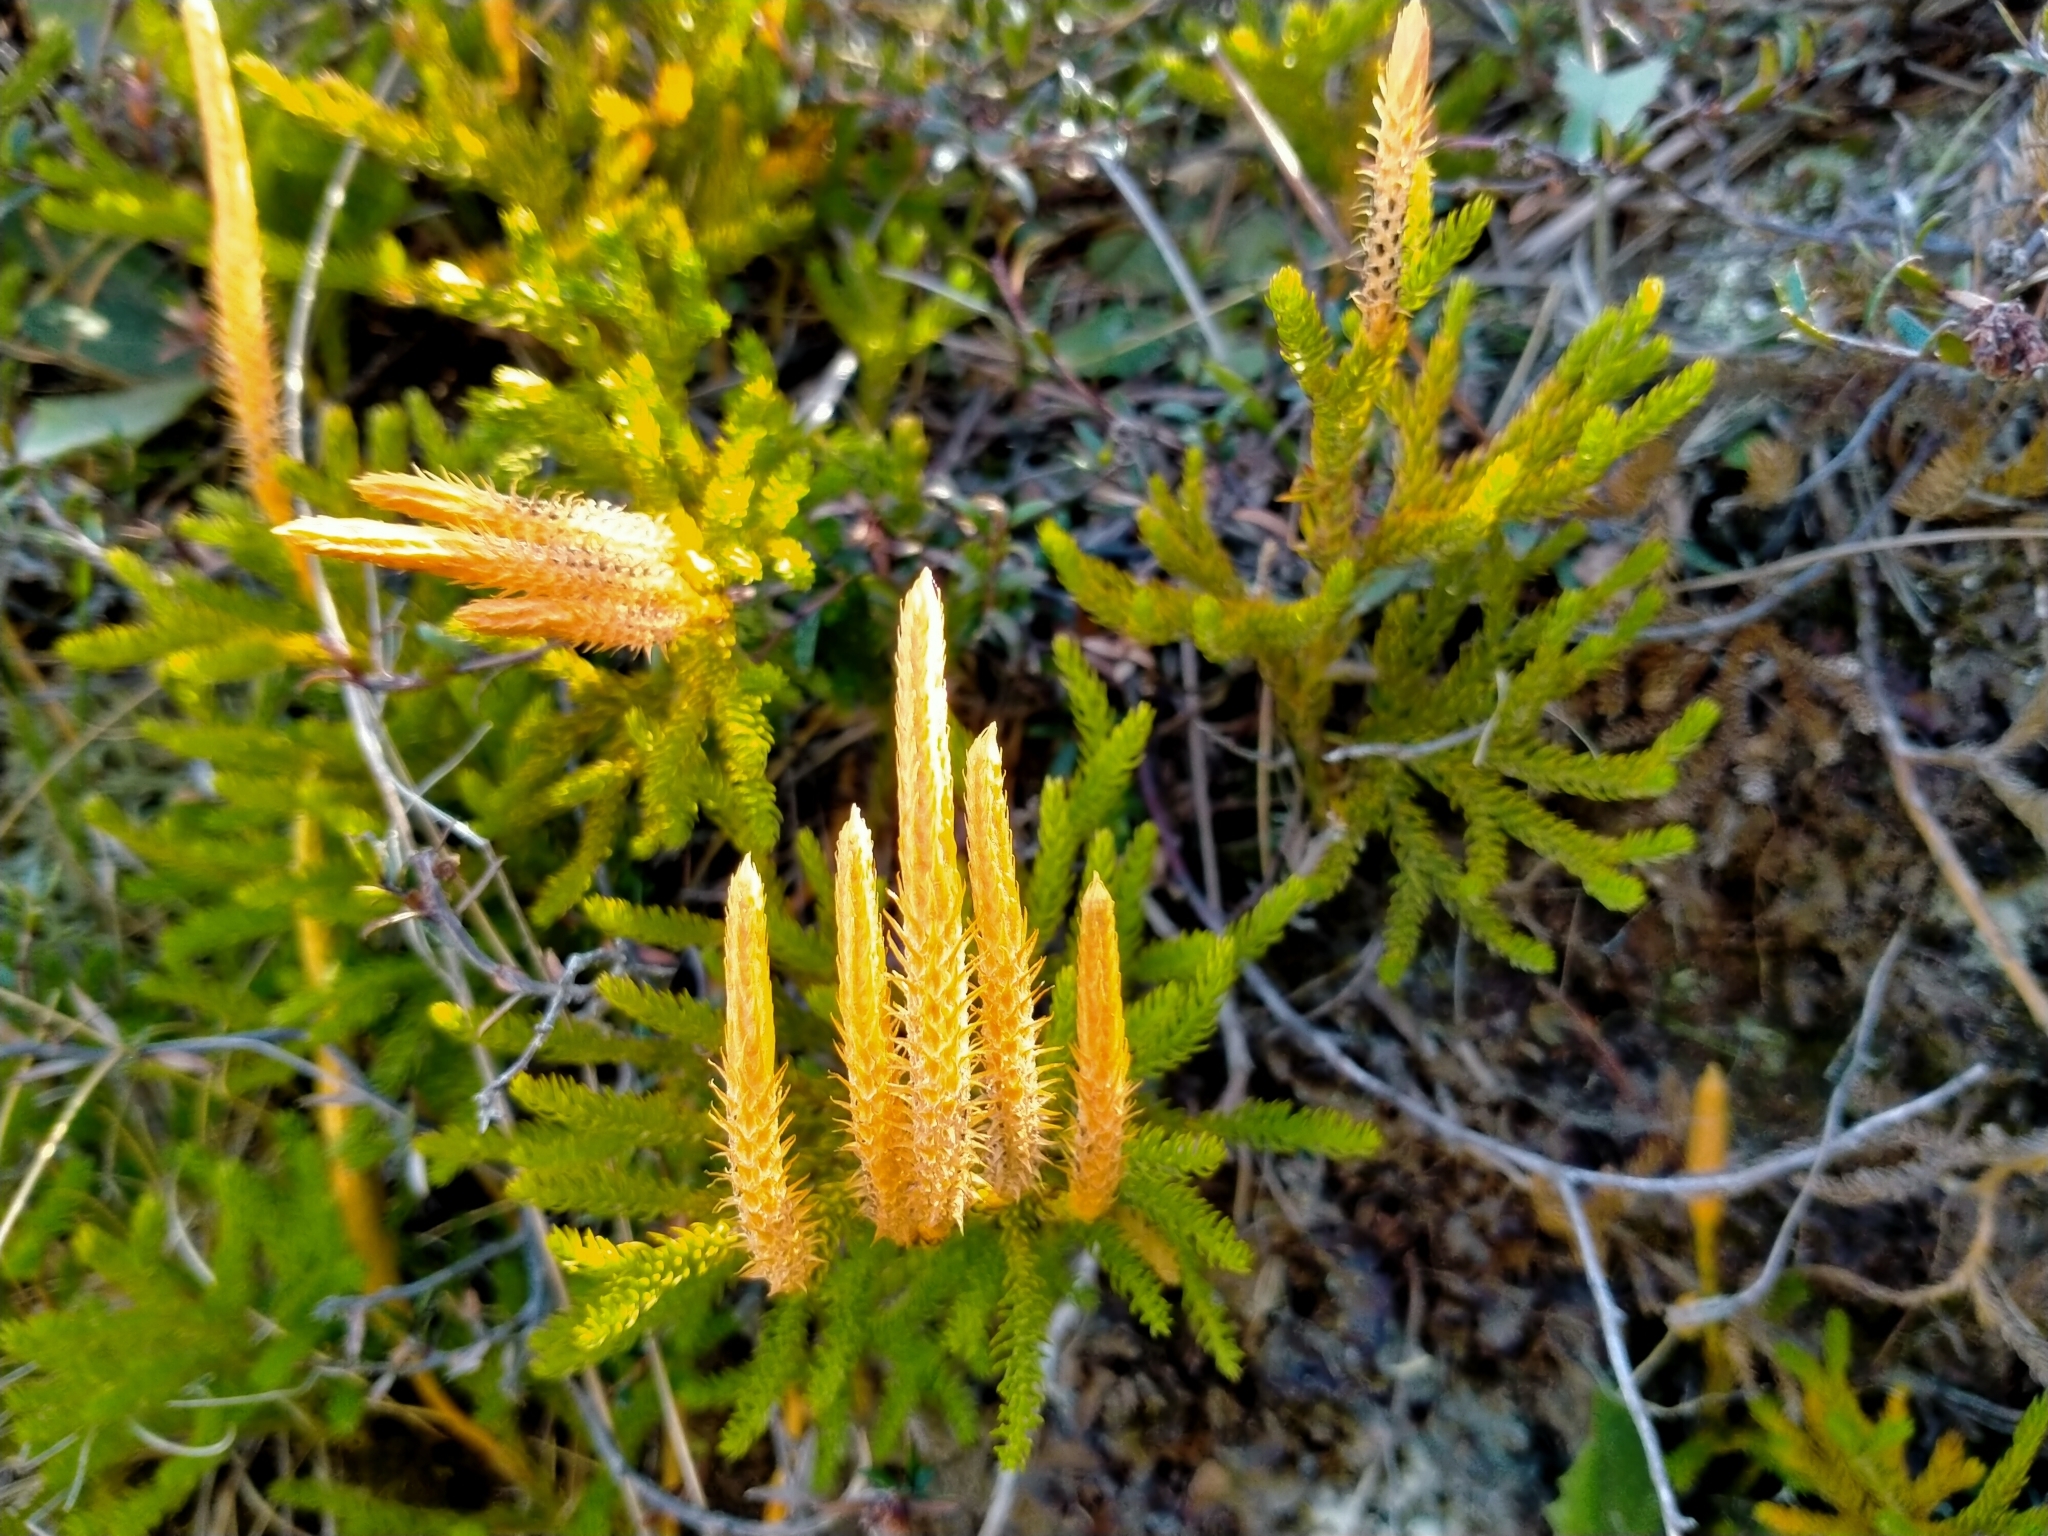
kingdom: Plantae
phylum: Tracheophyta
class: Lycopodiopsida
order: Lycopodiales
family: Lycopodiaceae
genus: Austrolycopodium
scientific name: Austrolycopodium fastigiatum
